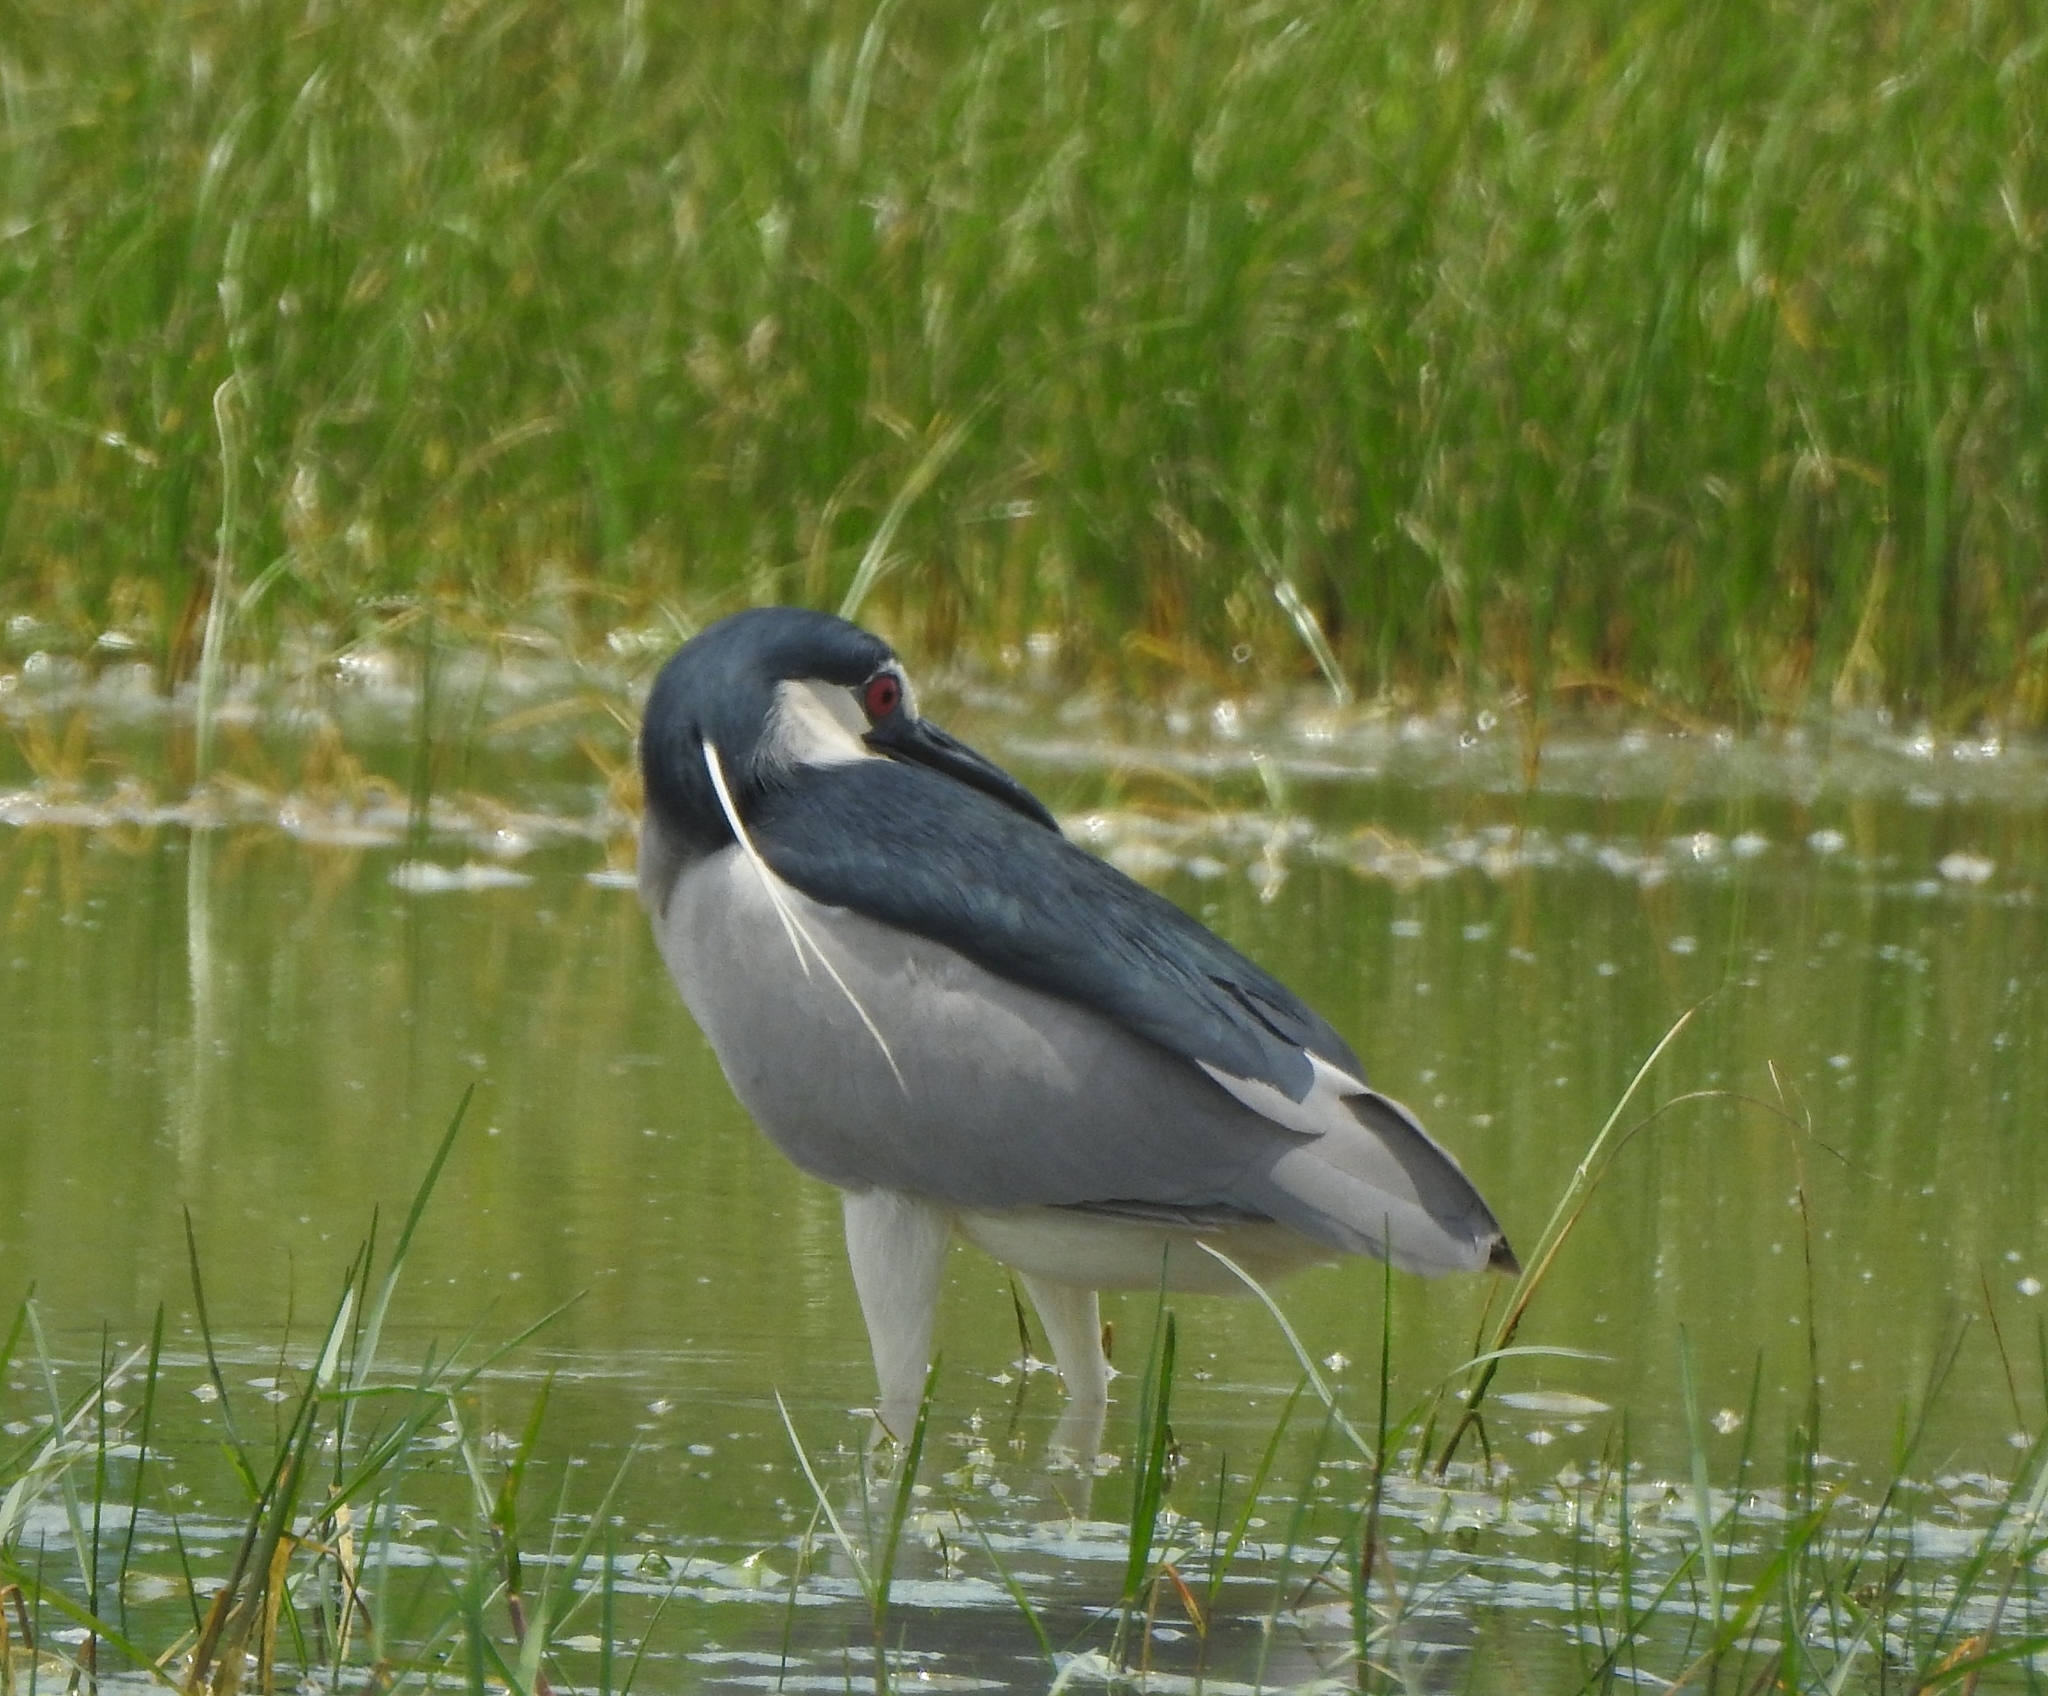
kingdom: Animalia
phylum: Chordata
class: Aves
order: Pelecaniformes
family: Ardeidae
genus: Nycticorax
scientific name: Nycticorax nycticorax
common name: Black-crowned night heron
